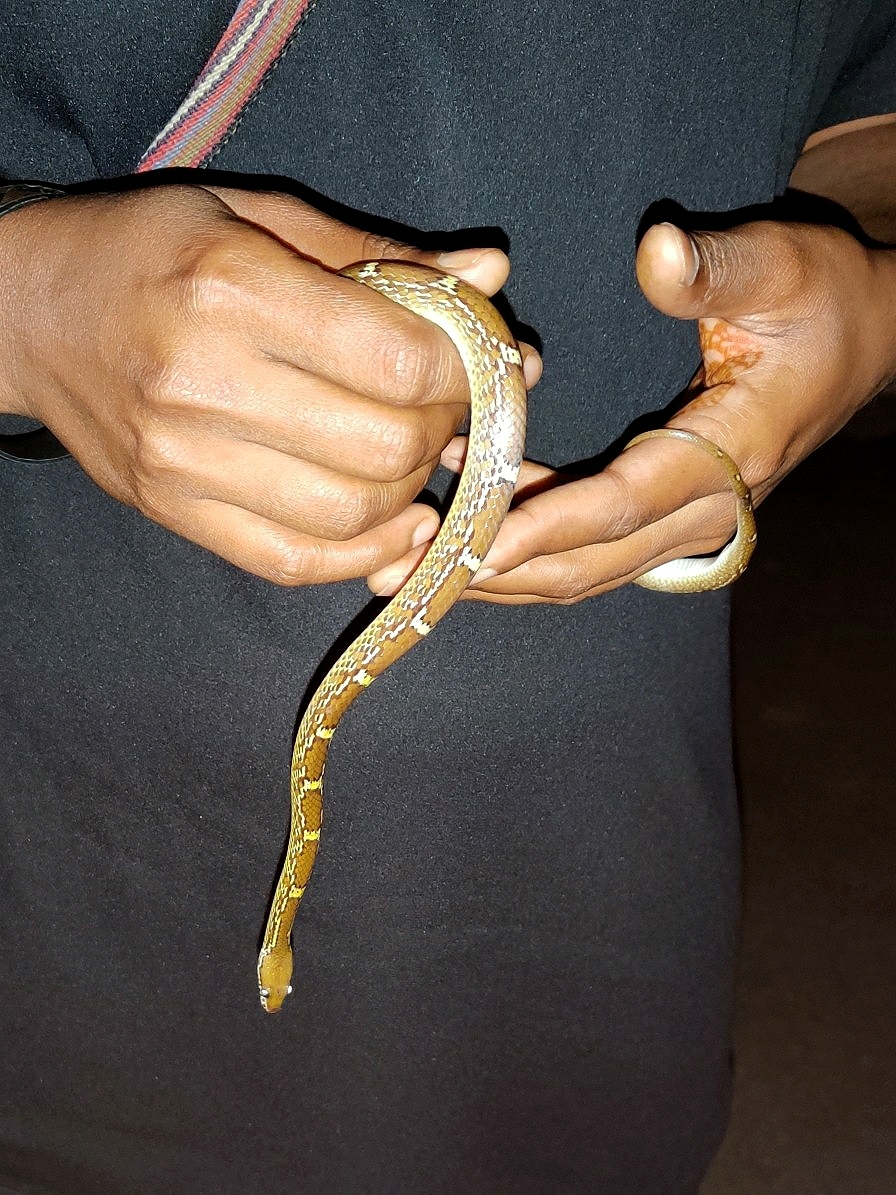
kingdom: Animalia
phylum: Chordata
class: Squamata
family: Colubridae
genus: Lycodon
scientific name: Lycodon fasciolatus
